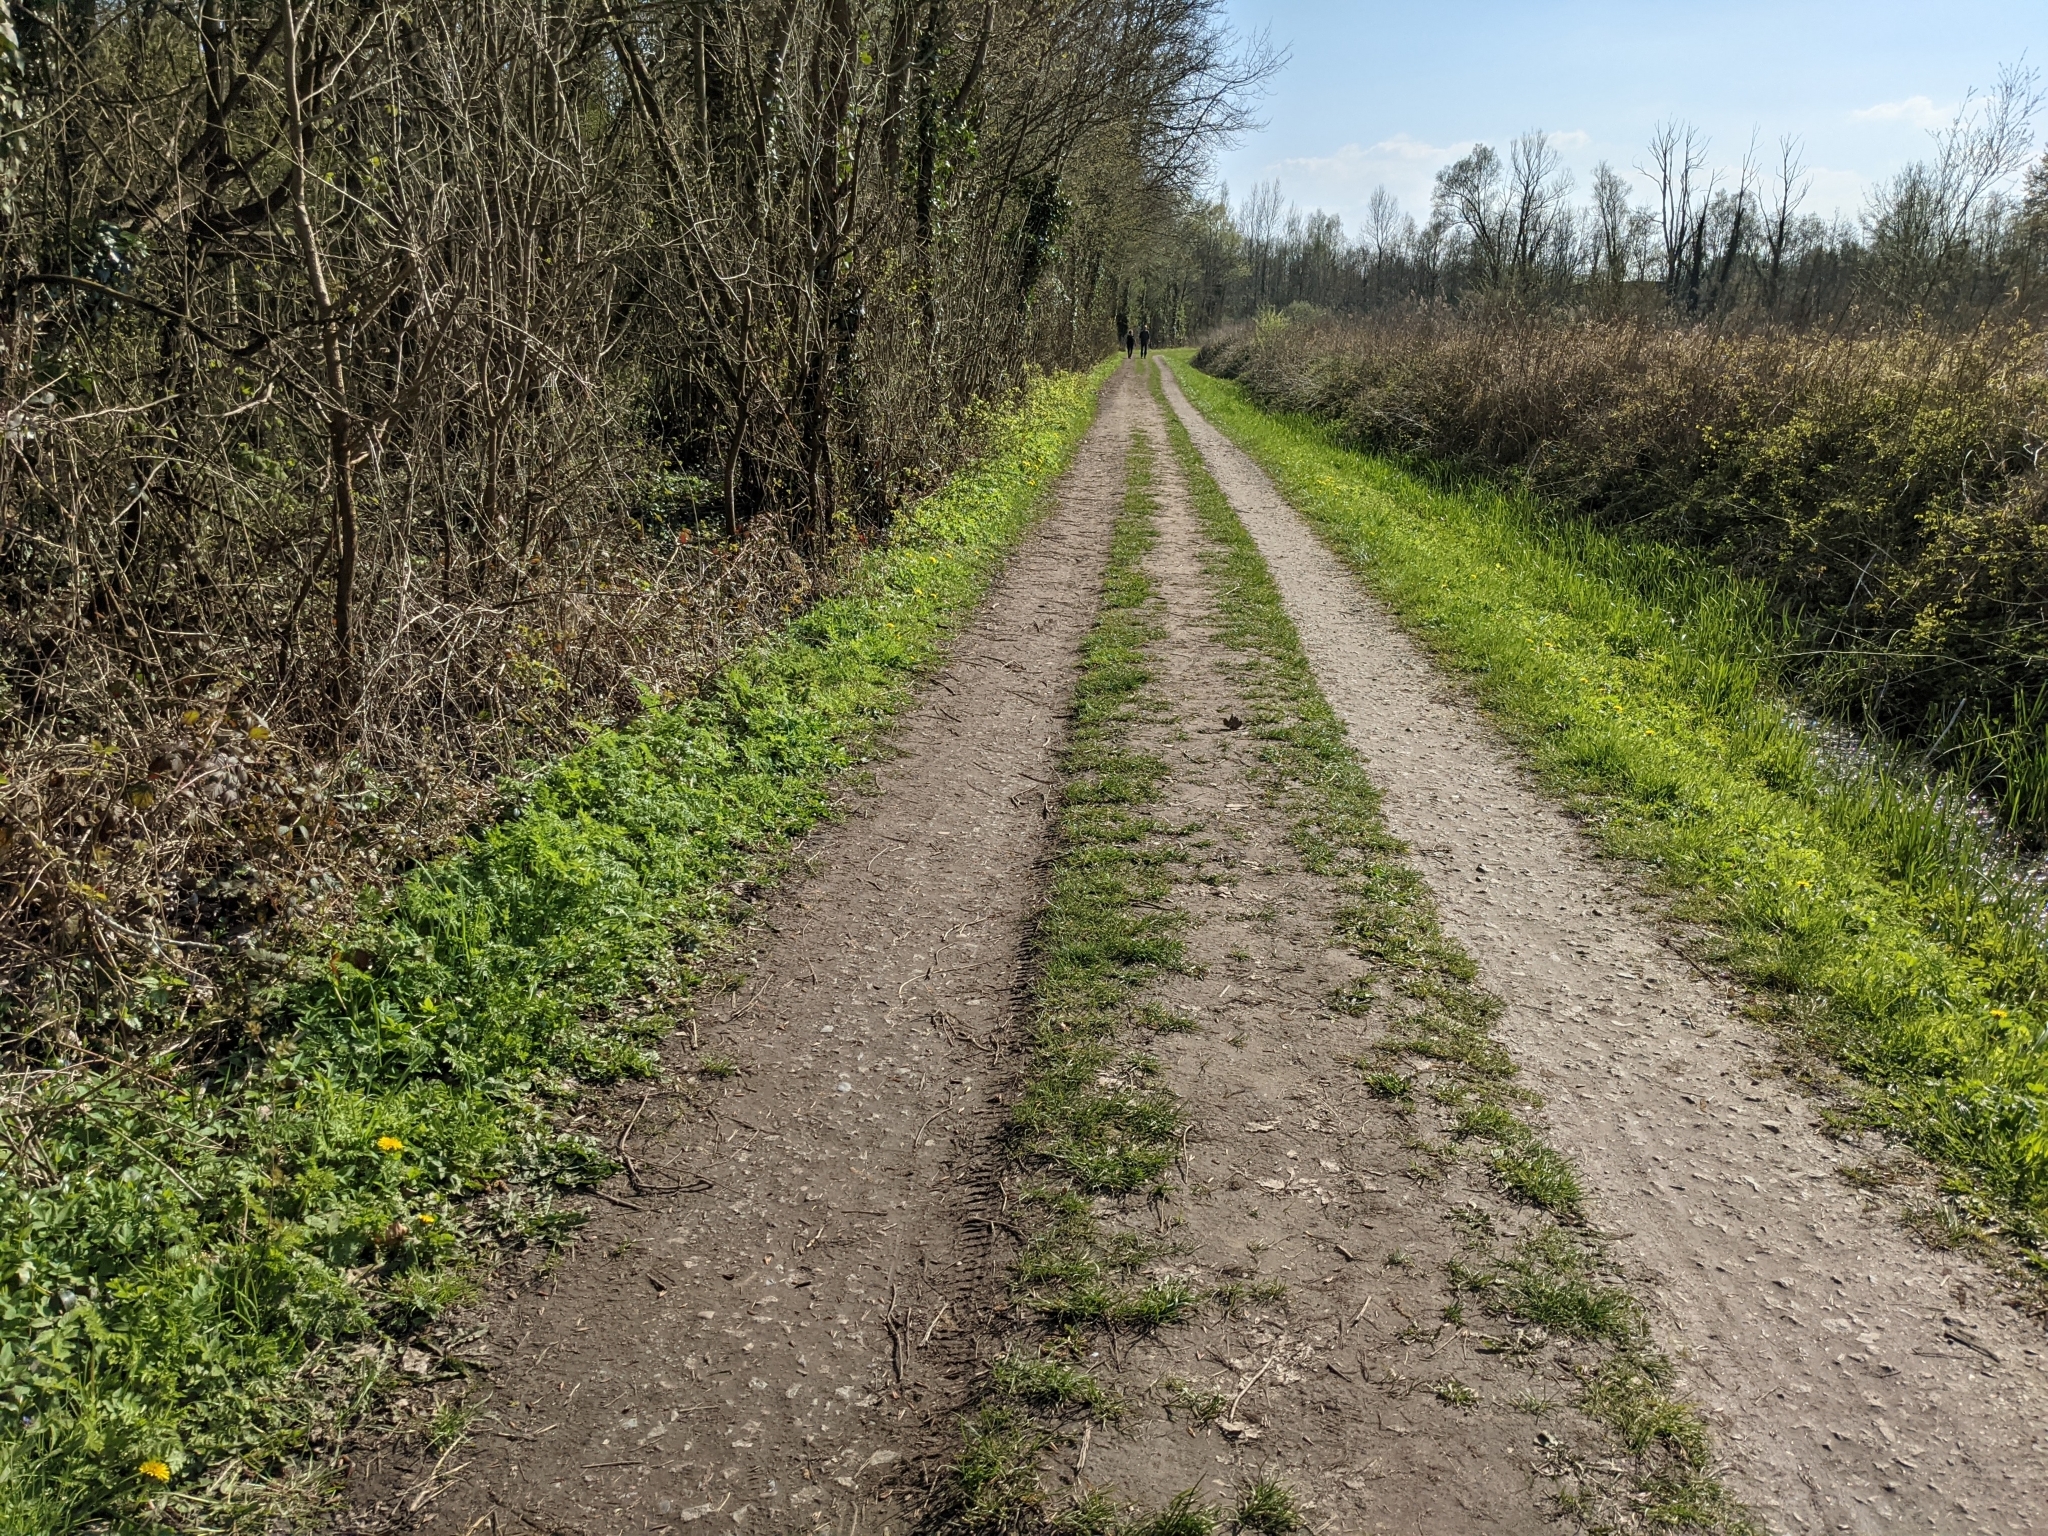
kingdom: Plantae
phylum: Tracheophyta
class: Magnoliopsida
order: Gentianales
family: Apocynaceae
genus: Vinca
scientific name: Vinca minor
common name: Lesser periwinkle
